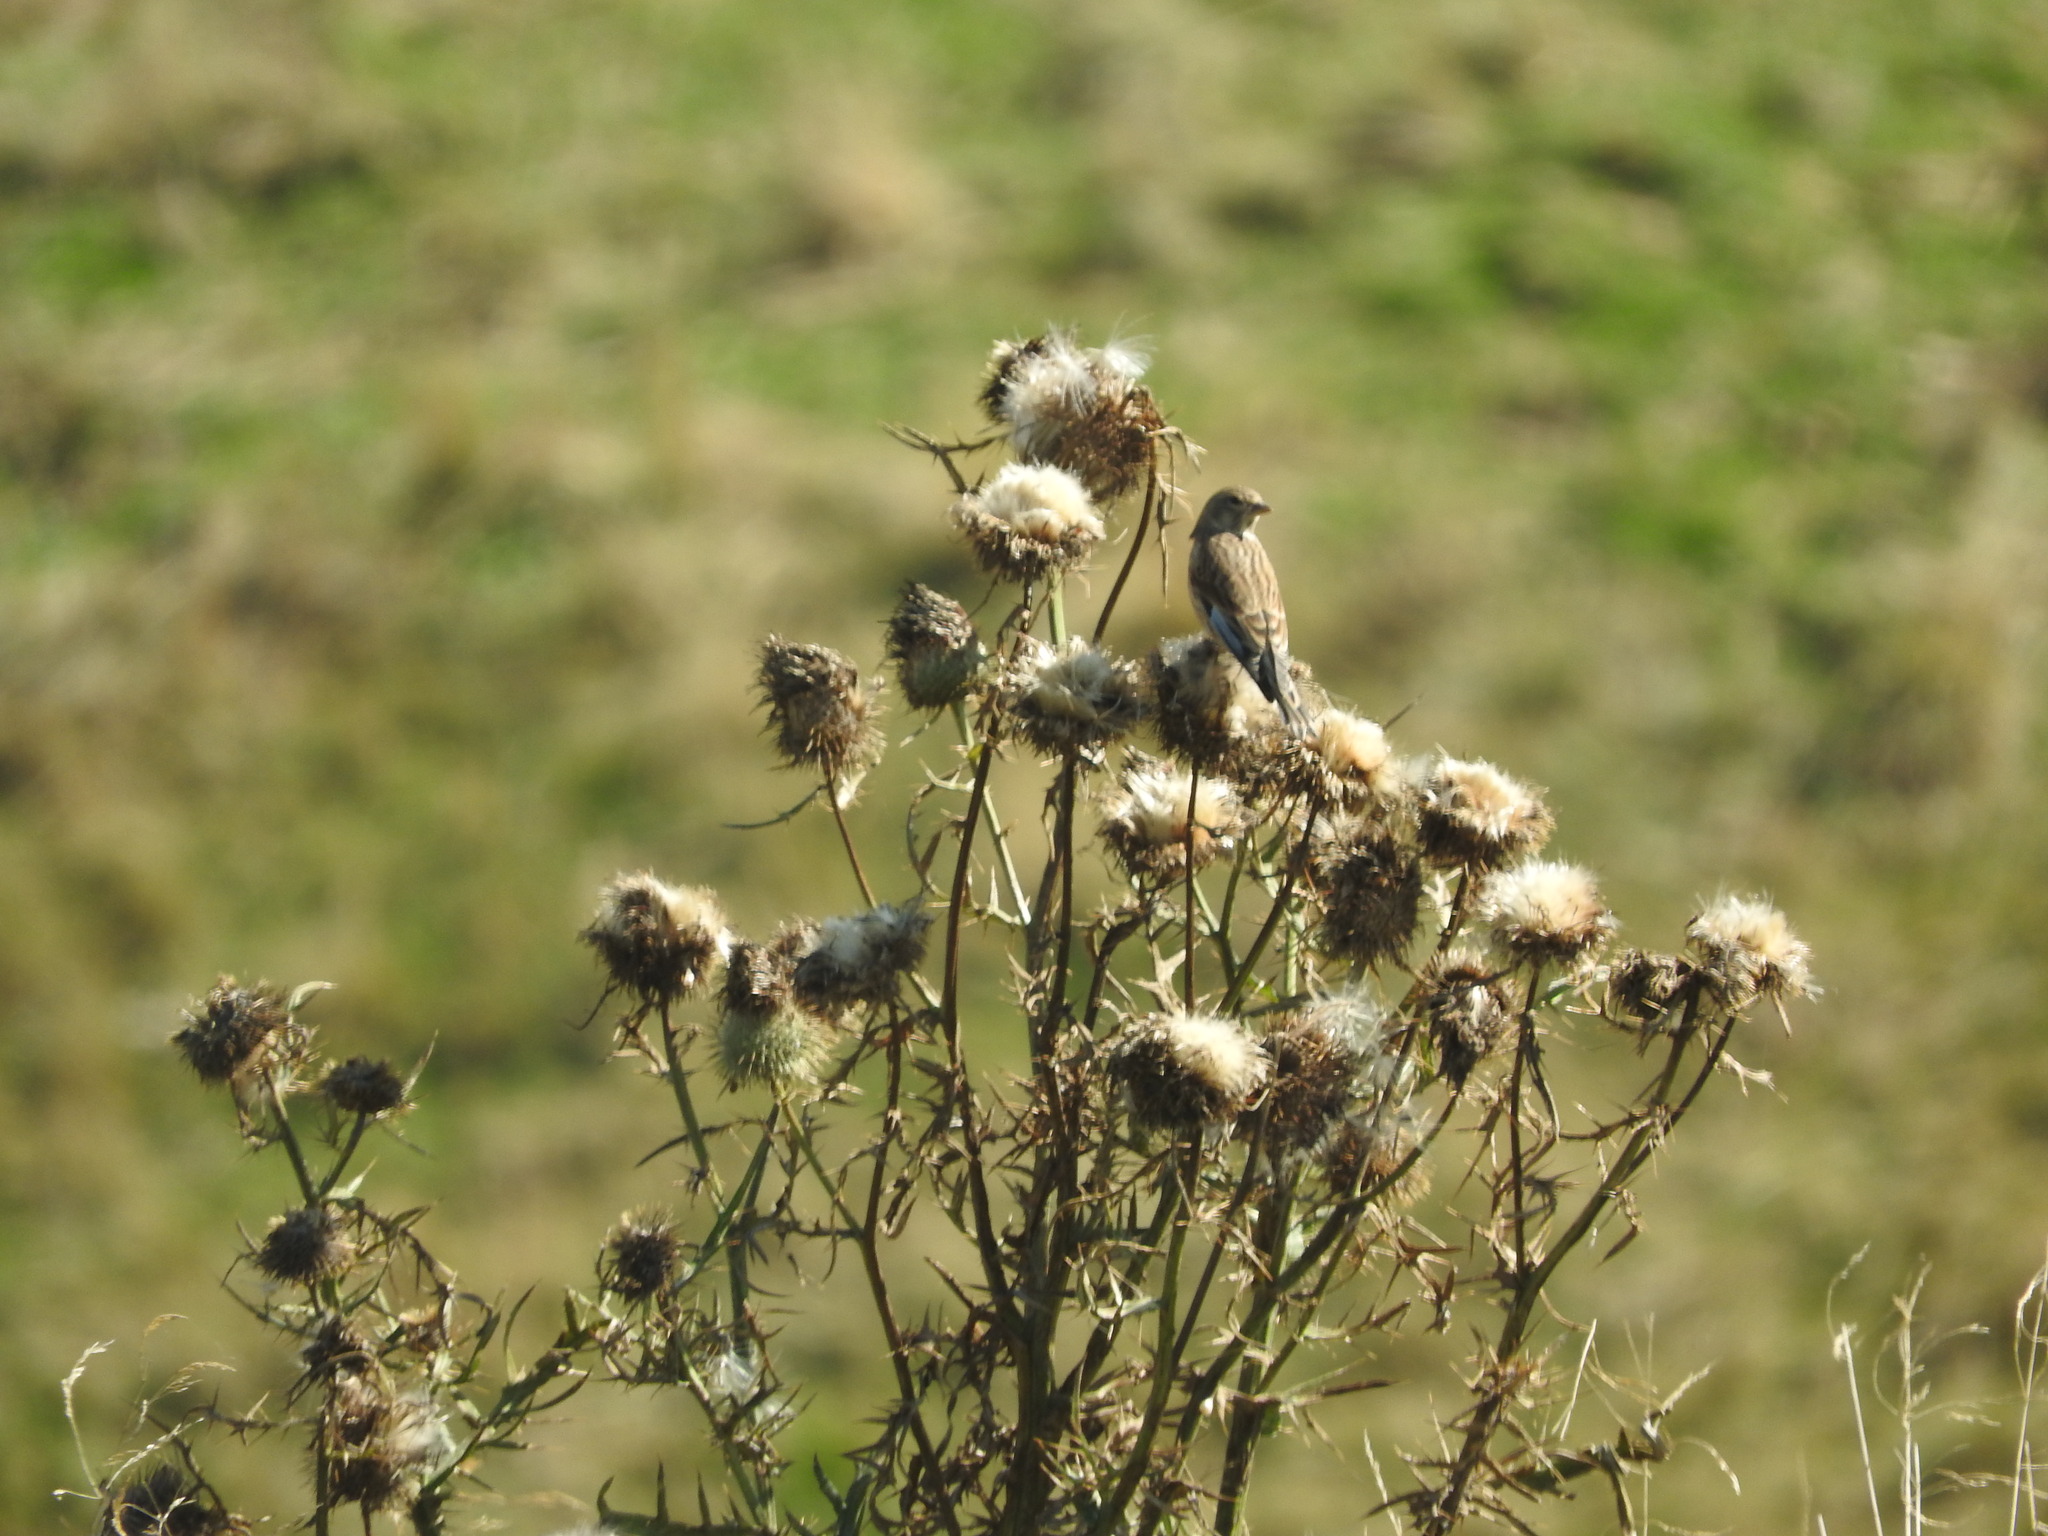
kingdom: Animalia
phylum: Chordata
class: Aves
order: Passeriformes
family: Fringillidae
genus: Linaria
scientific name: Linaria cannabina
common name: Common linnet
